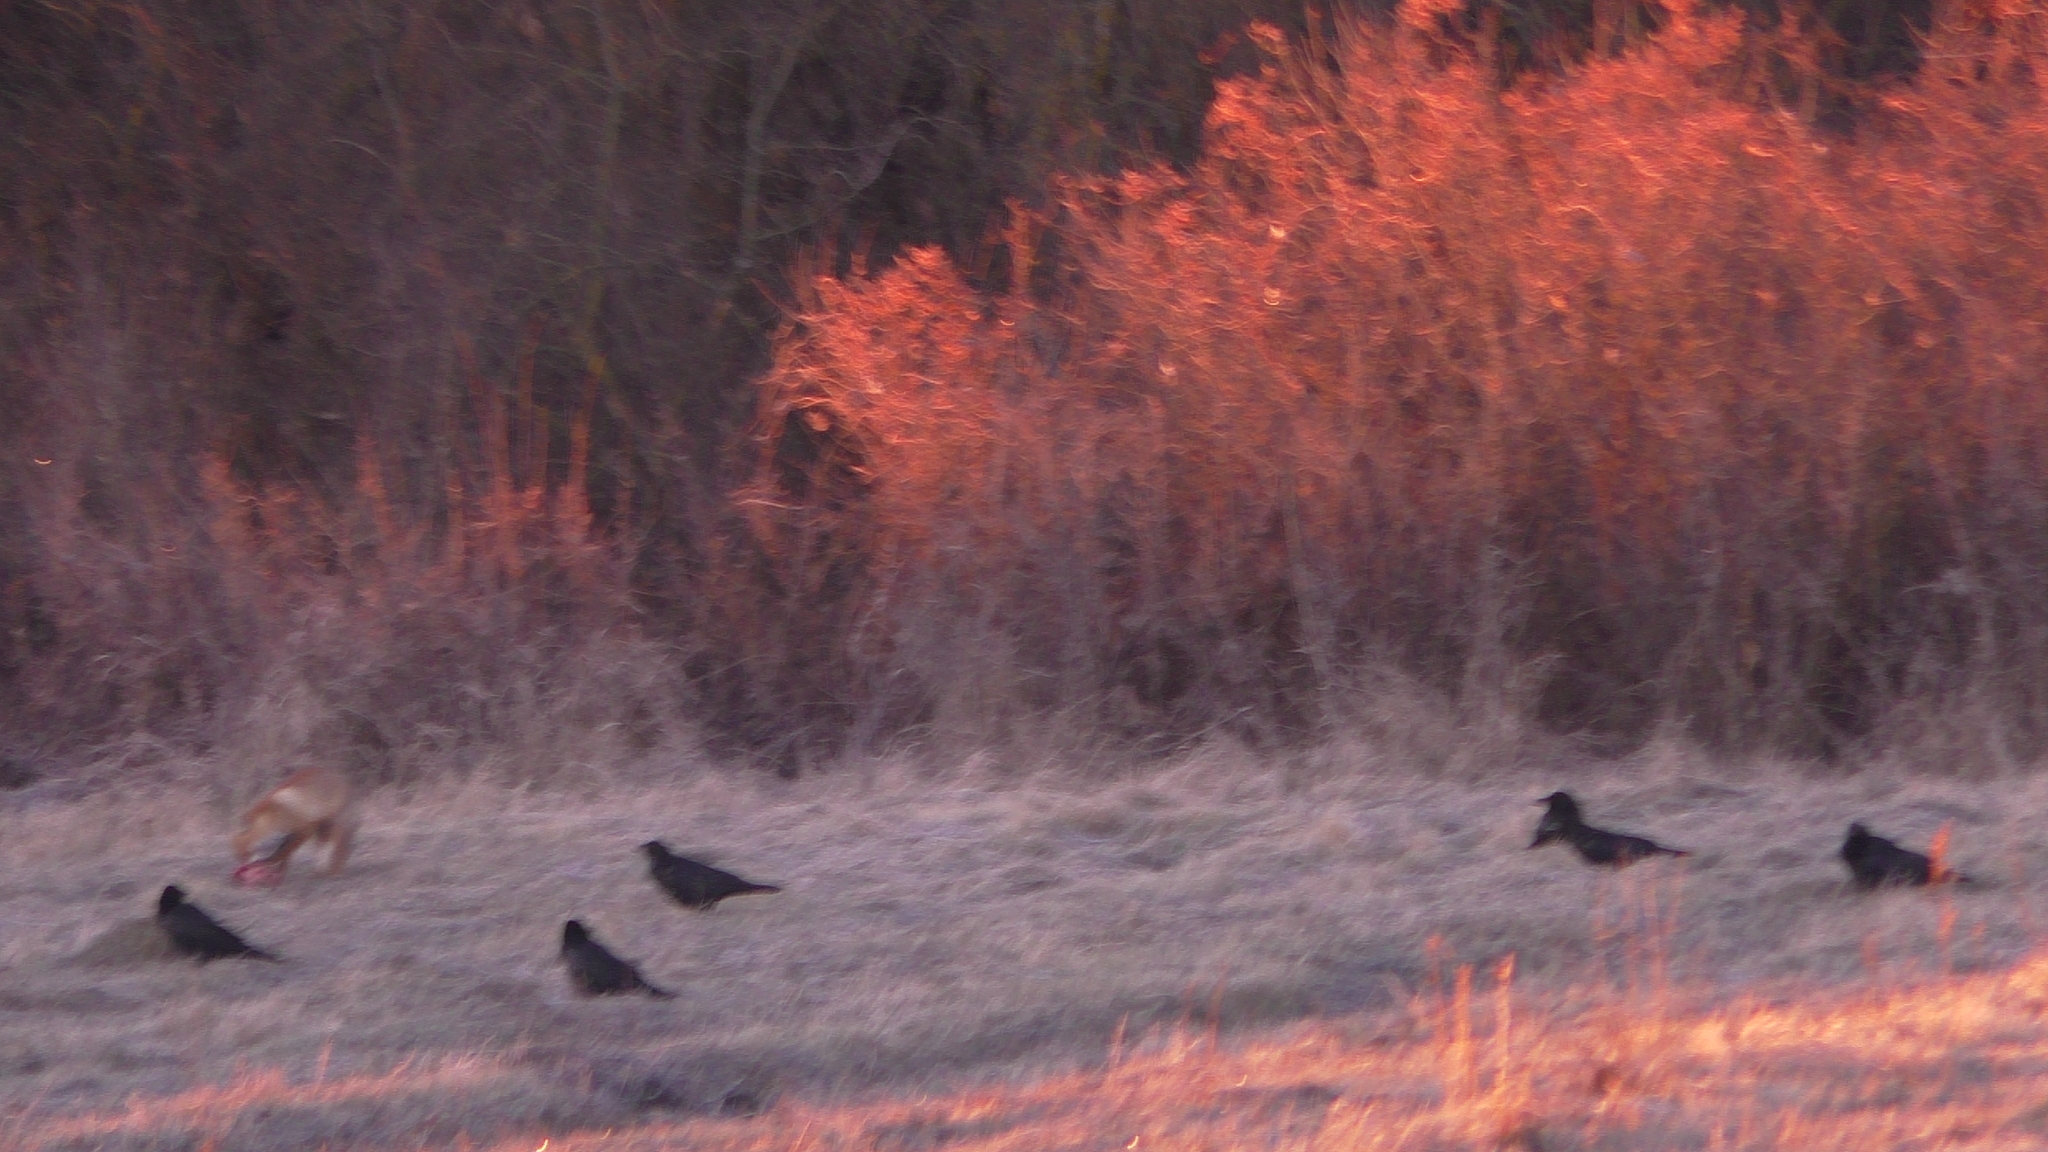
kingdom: Animalia
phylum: Chordata
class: Aves
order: Passeriformes
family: Corvidae
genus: Corvus
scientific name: Corvus corax
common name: Common raven
